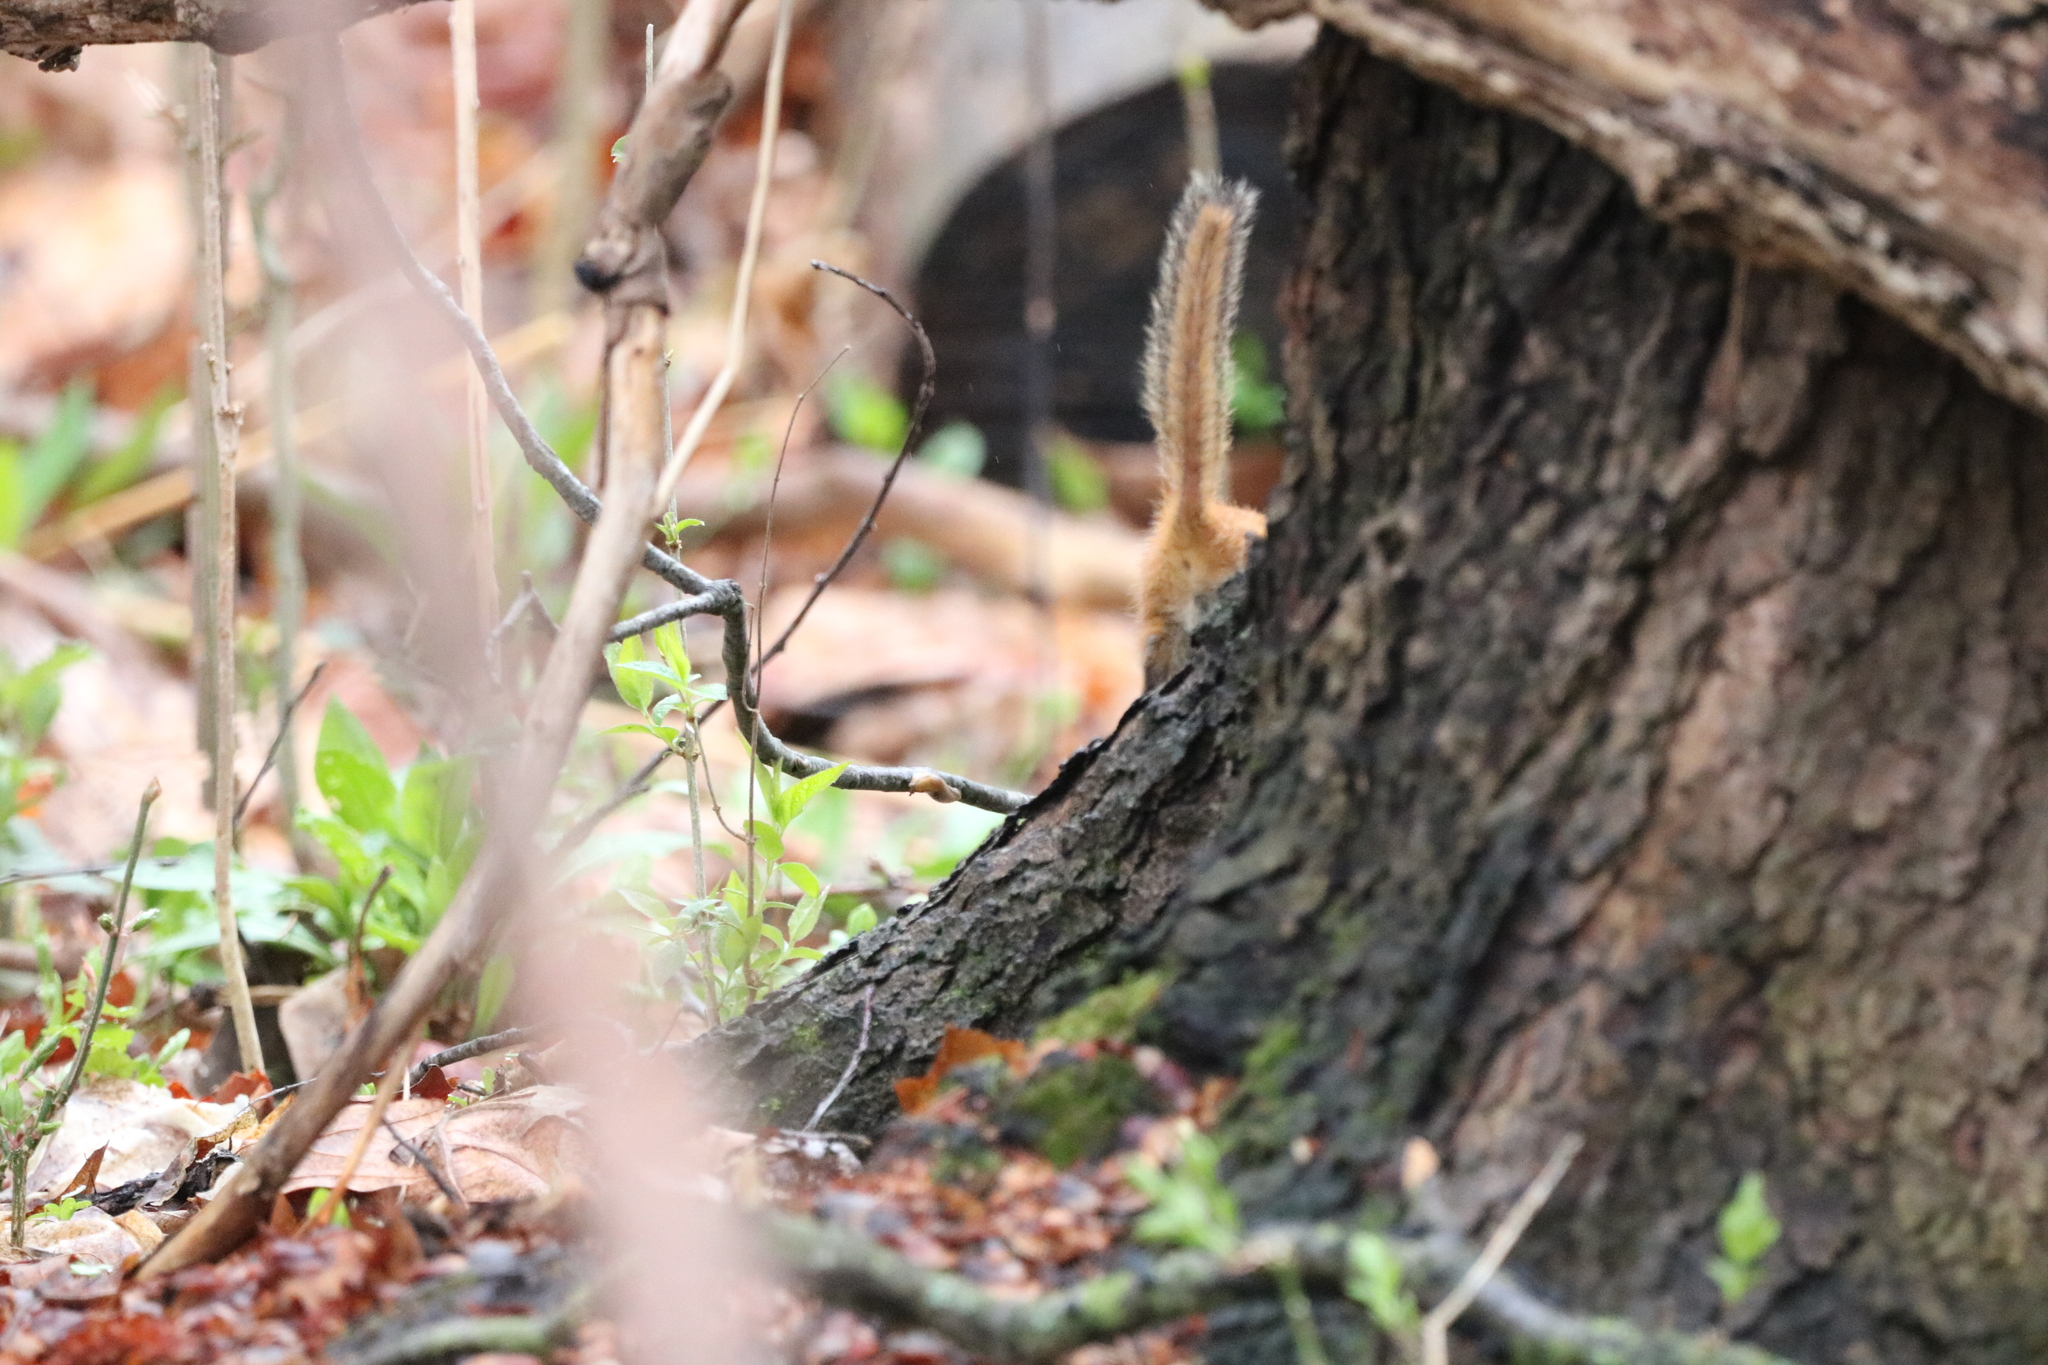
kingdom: Animalia
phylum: Chordata
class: Mammalia
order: Rodentia
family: Sciuridae
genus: Tamias
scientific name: Tamias striatus
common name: Eastern chipmunk
